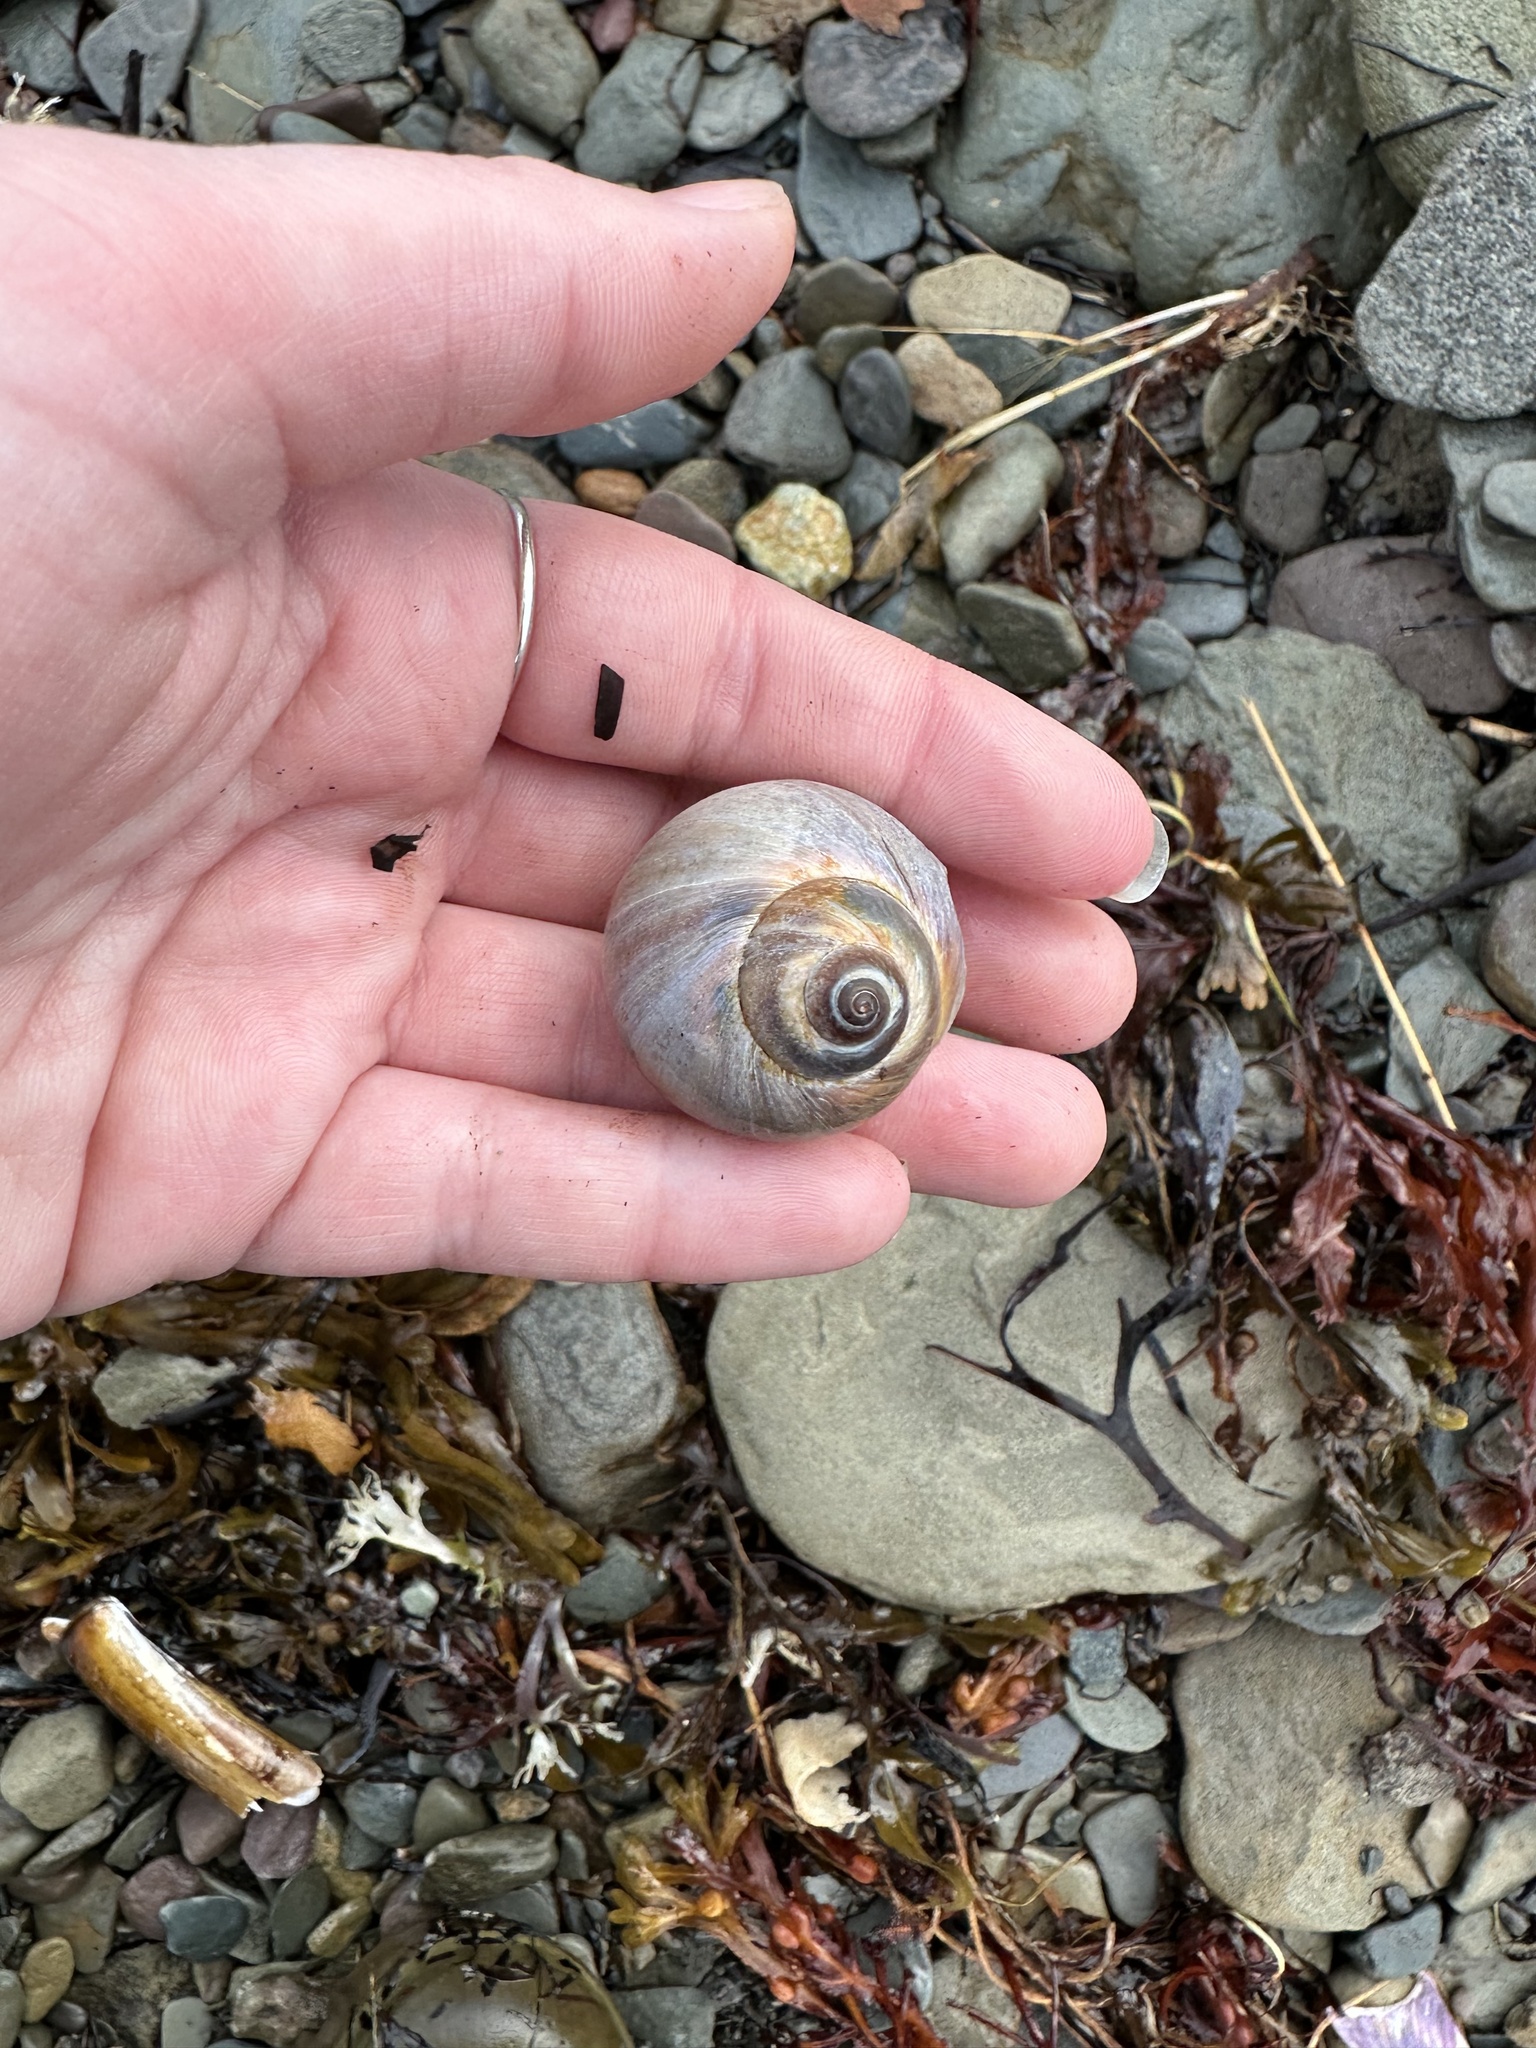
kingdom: Animalia
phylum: Mollusca
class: Gastropoda
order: Littorinimorpha
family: Naticidae
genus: Euspira
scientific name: Euspira heros
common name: Common northern moonsnail
